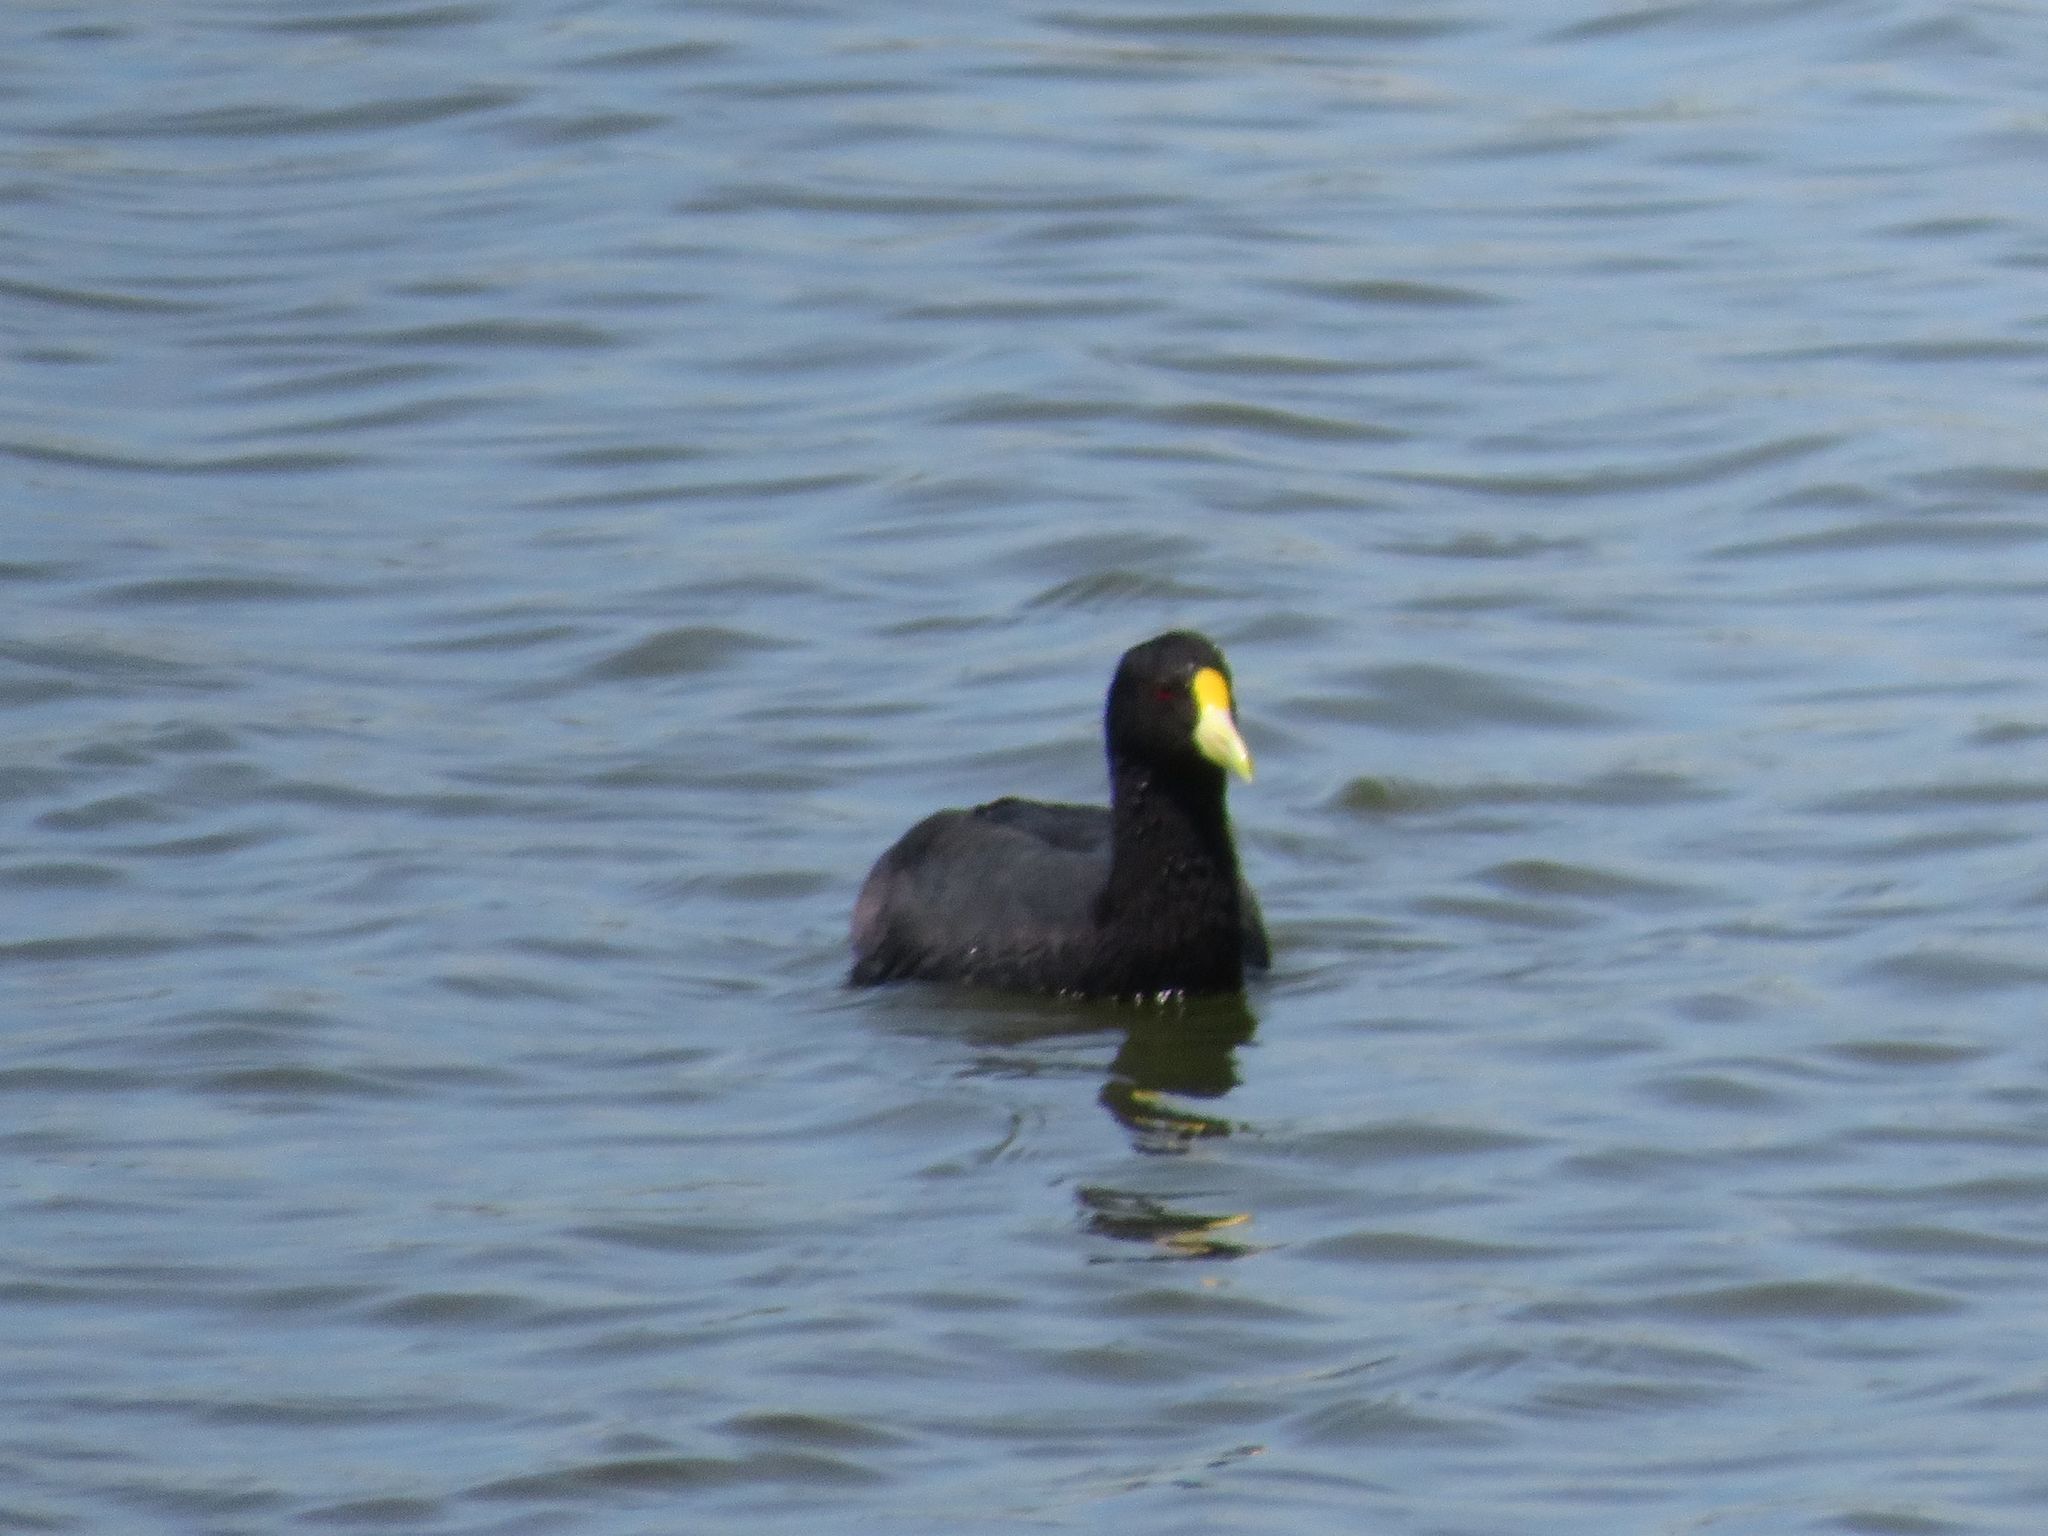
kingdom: Animalia
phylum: Chordata
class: Aves
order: Gruiformes
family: Rallidae
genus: Fulica
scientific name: Fulica leucoptera
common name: White-winged coot
